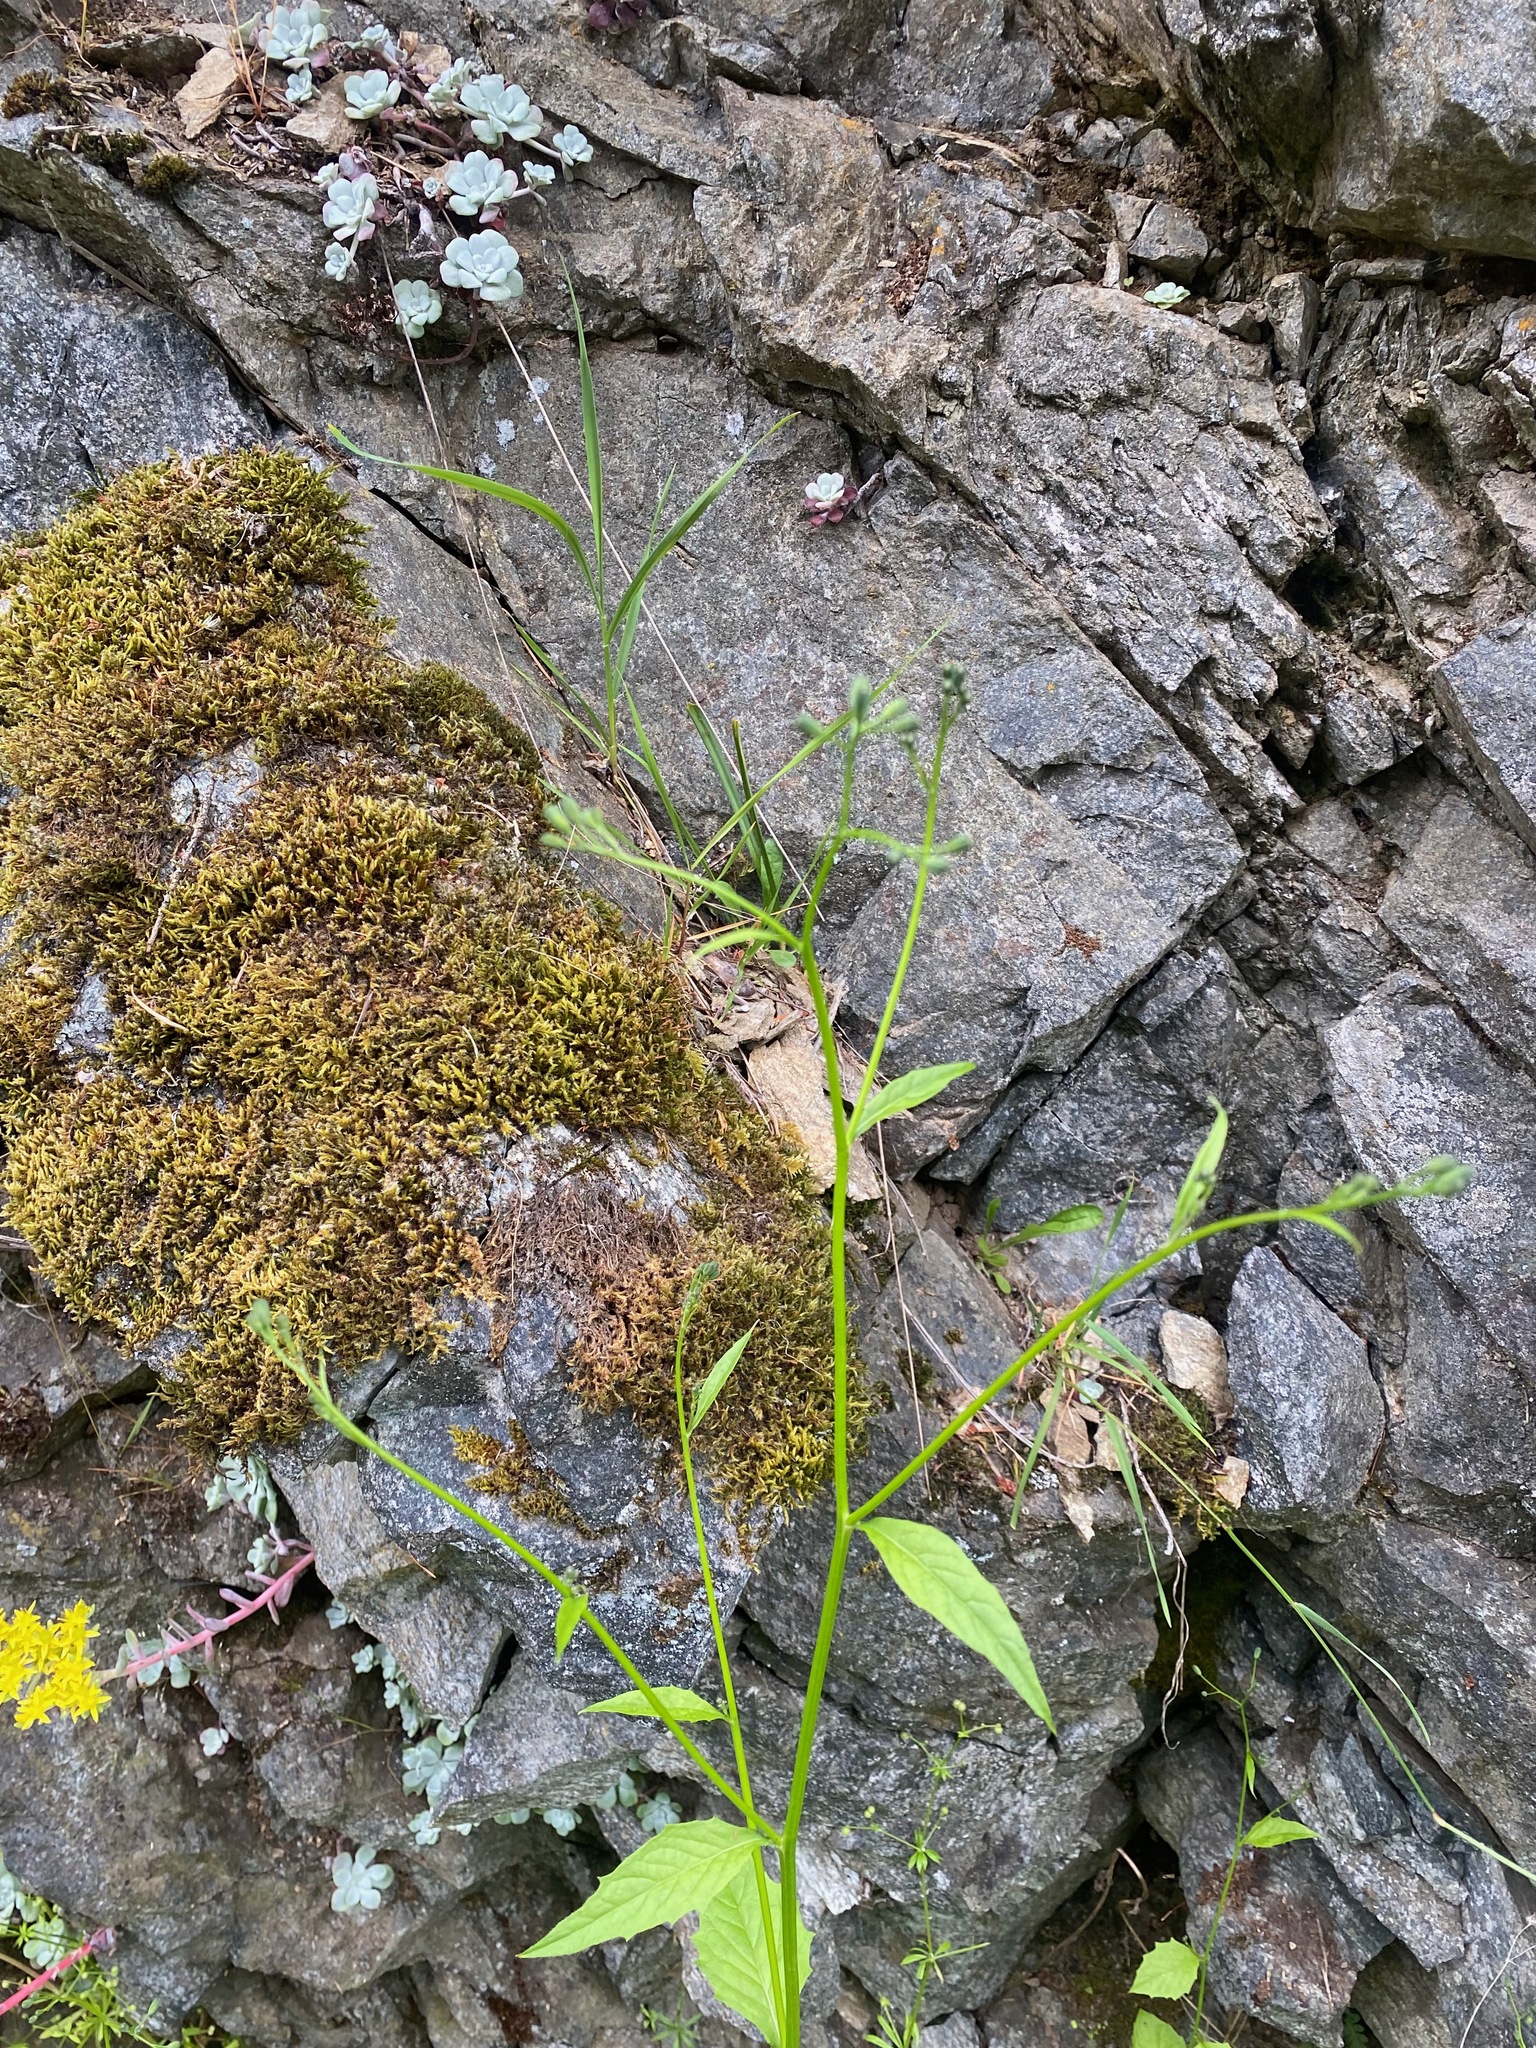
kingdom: Plantae
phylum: Tracheophyta
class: Magnoliopsida
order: Asterales
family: Asteraceae
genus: Lapsana
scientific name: Lapsana communis
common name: Nipplewort
